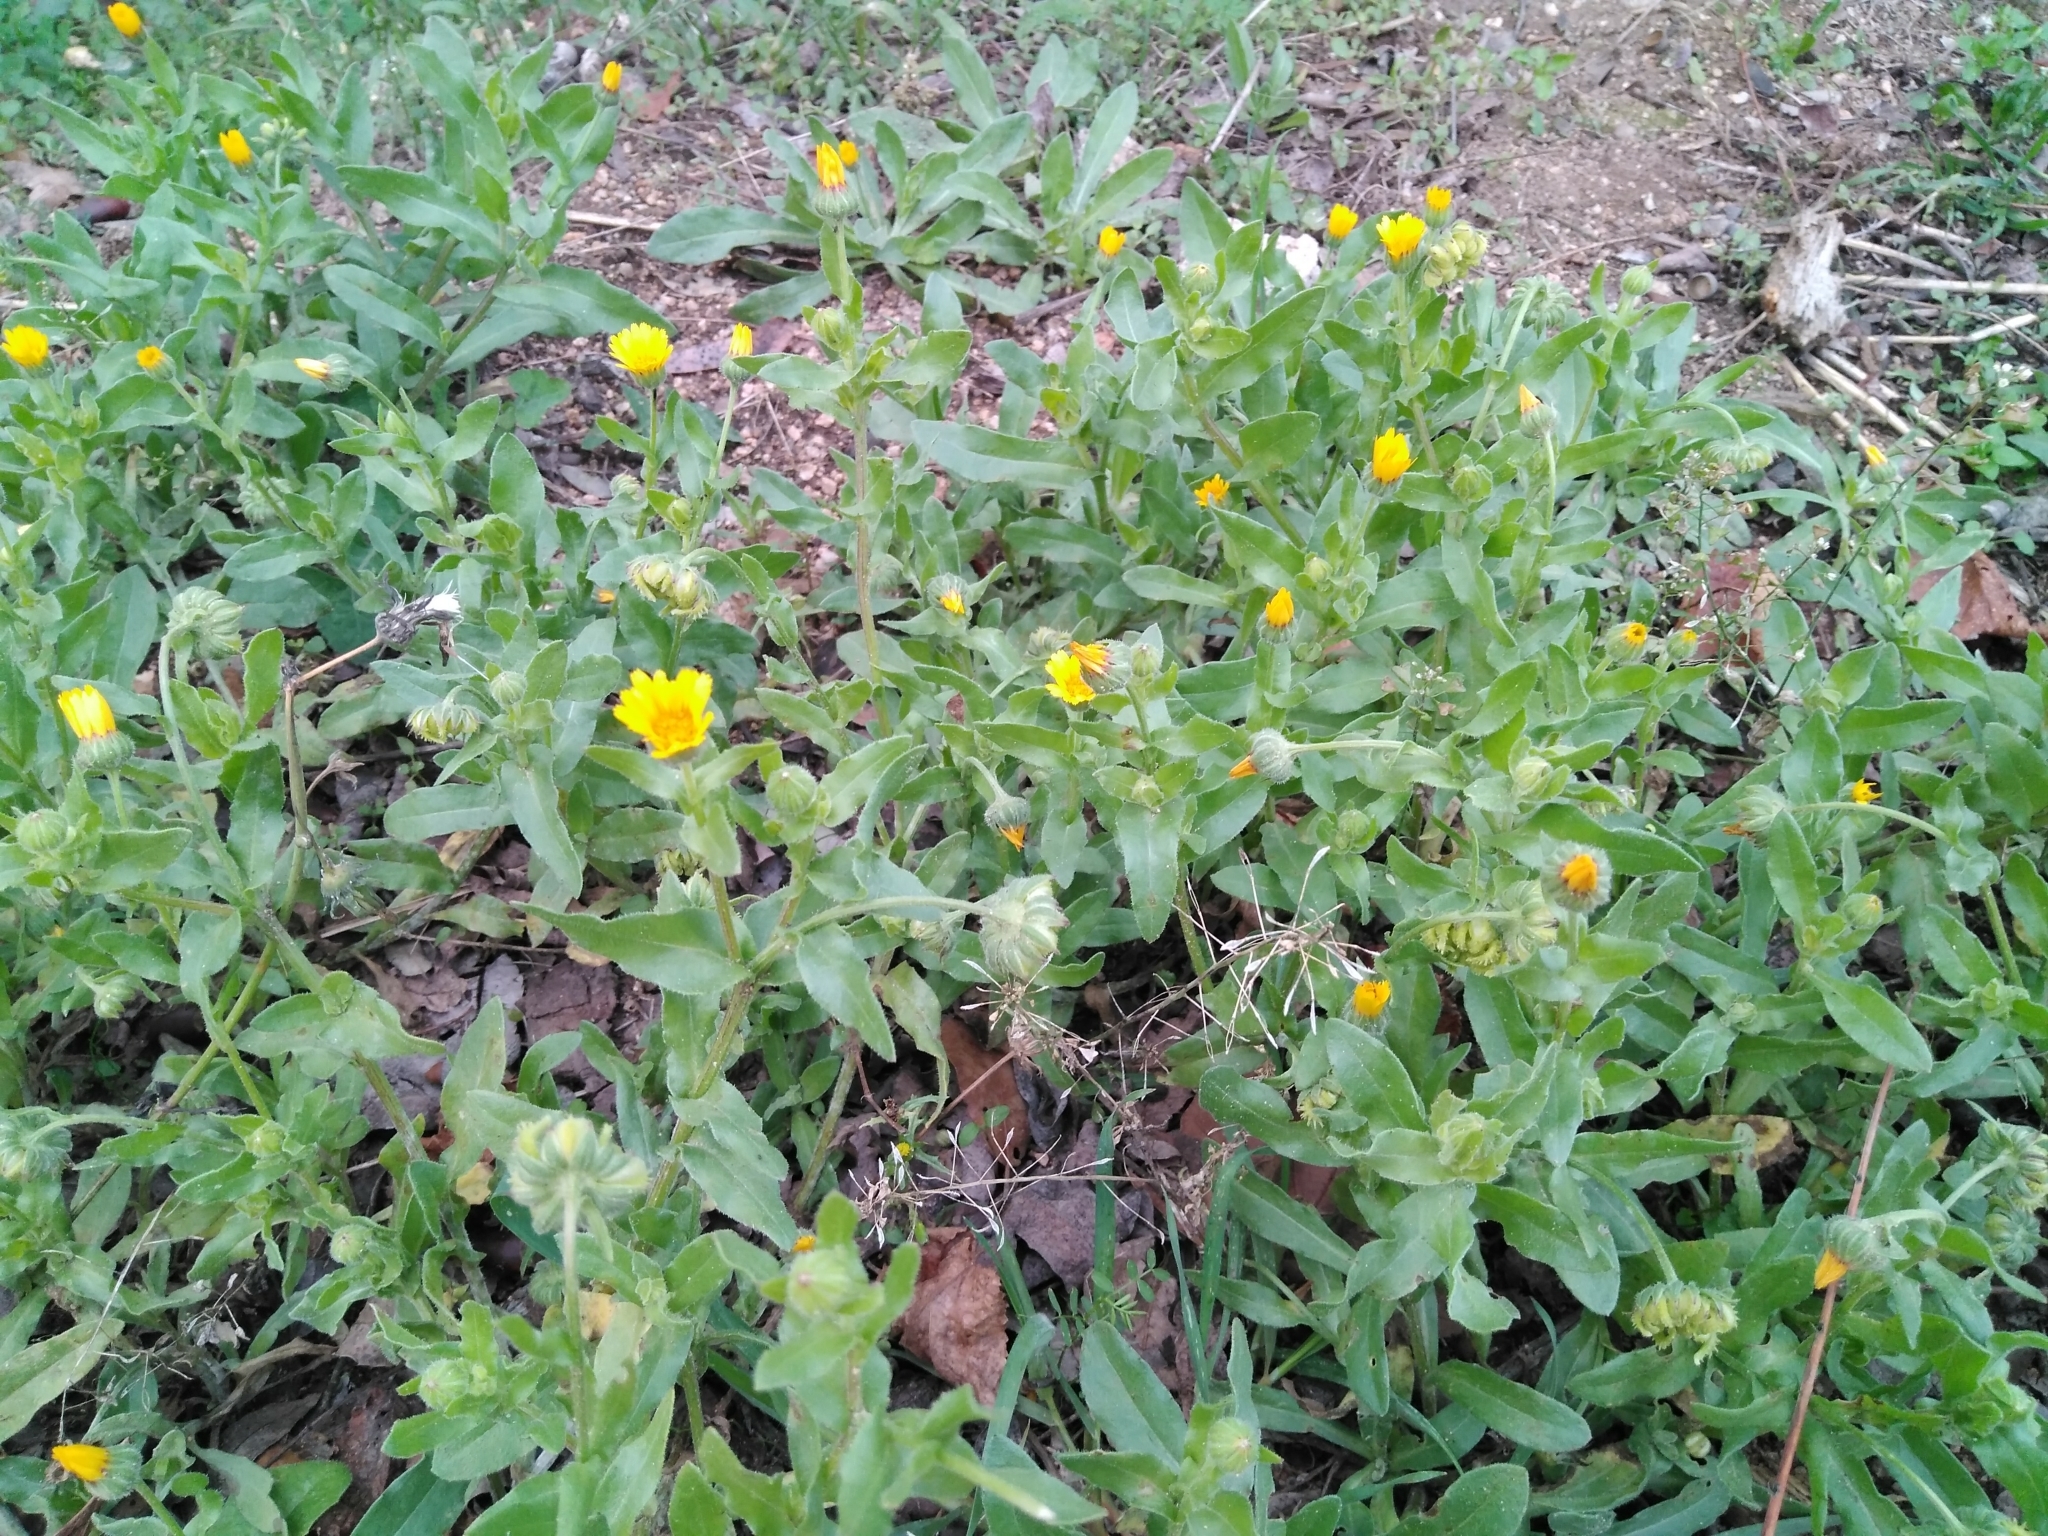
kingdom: Plantae
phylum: Tracheophyta
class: Magnoliopsida
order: Asterales
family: Asteraceae
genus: Calendula
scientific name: Calendula arvensis
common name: Field marigold
